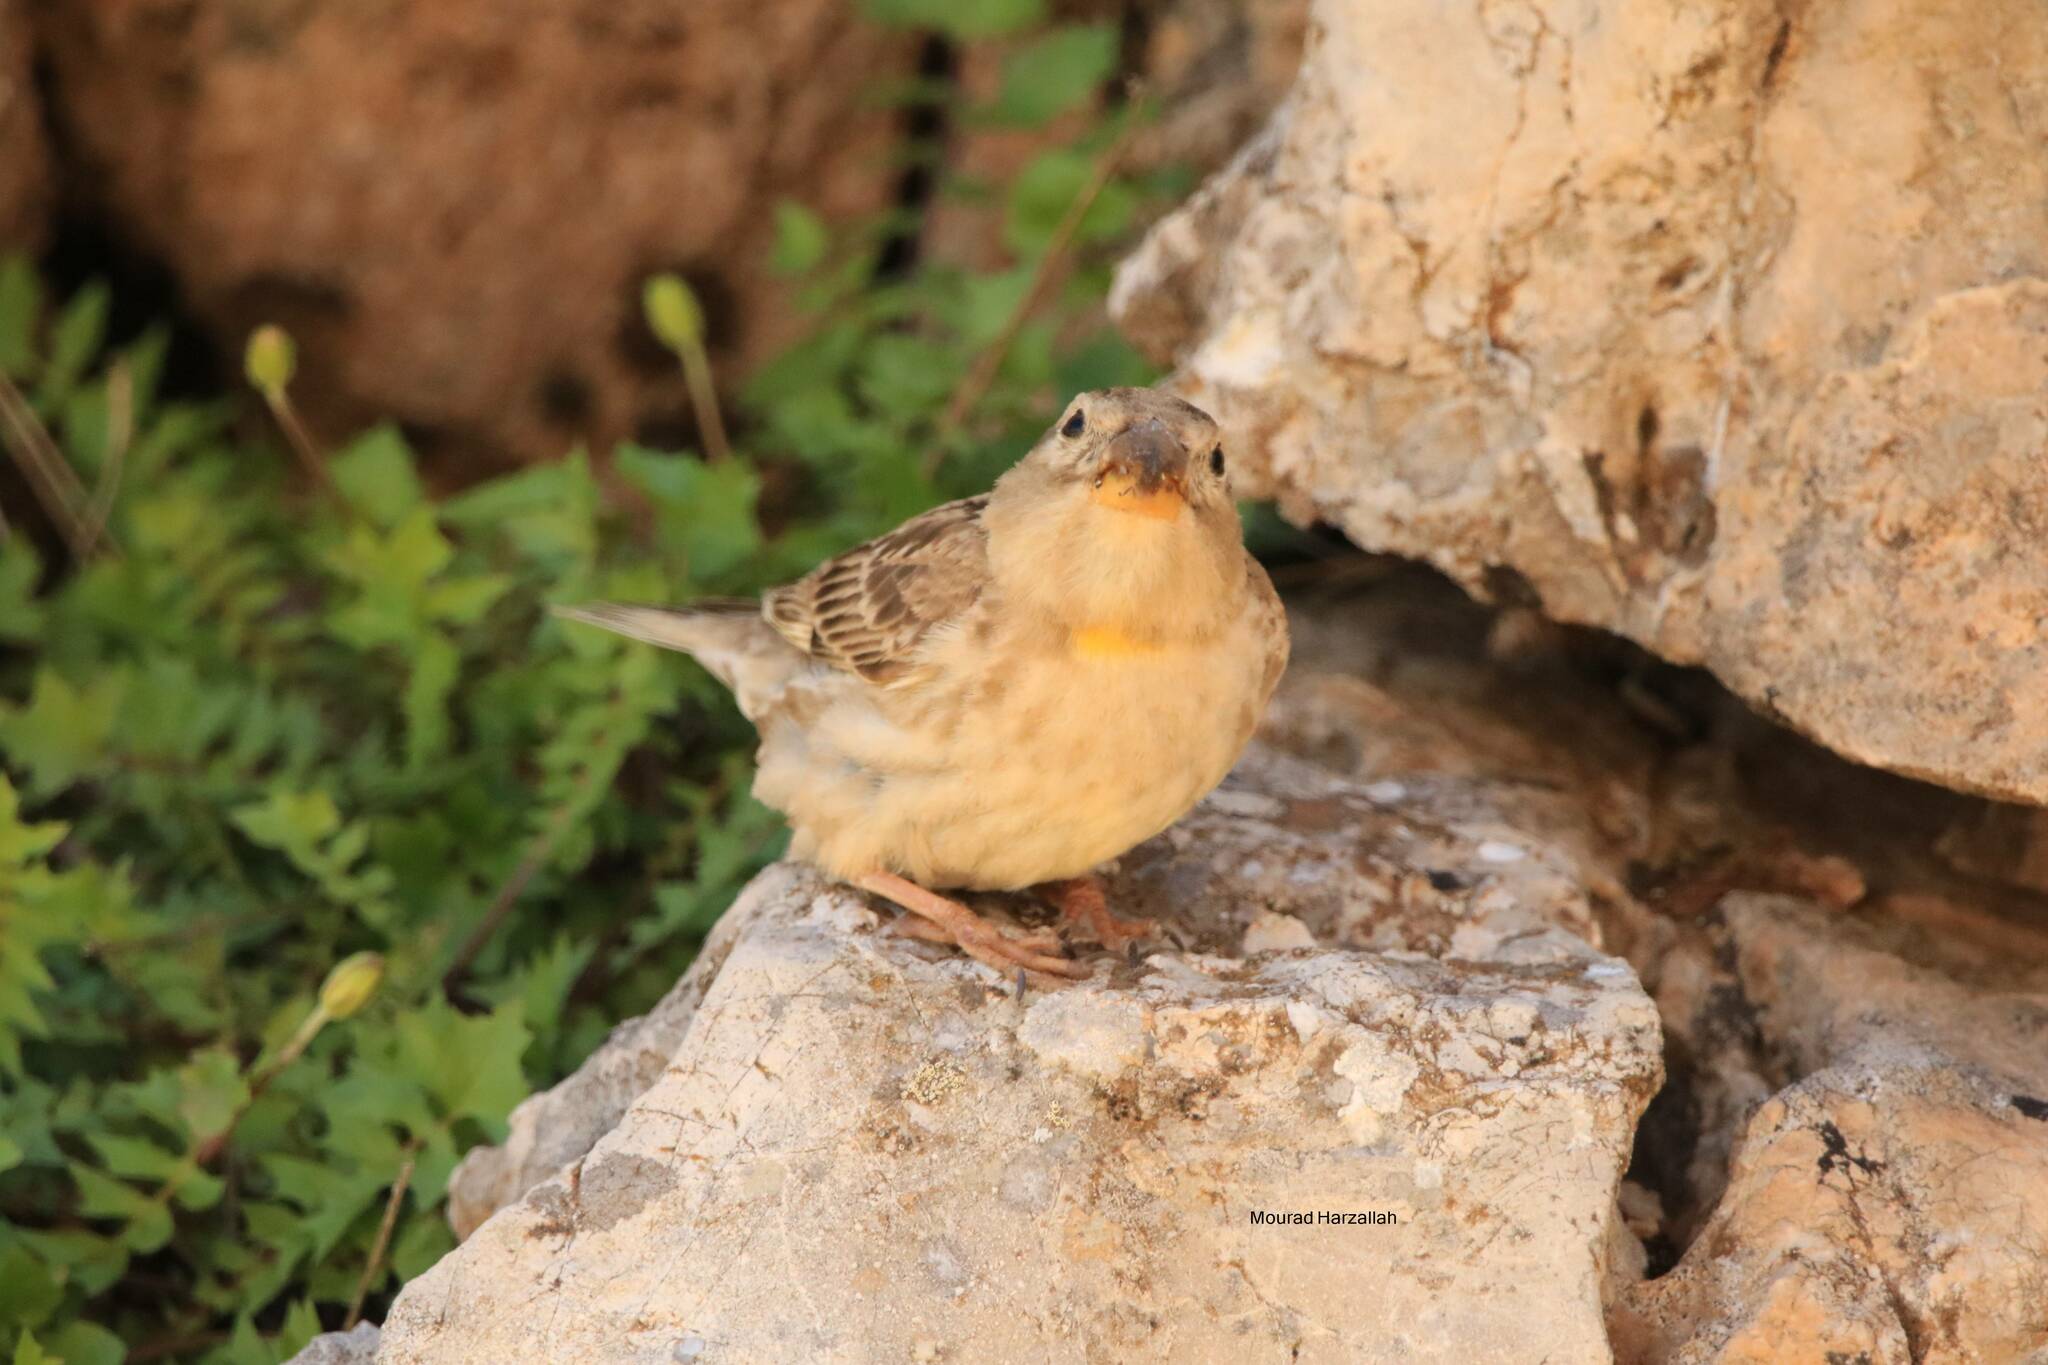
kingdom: Animalia
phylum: Chordata
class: Aves
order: Passeriformes
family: Passeridae
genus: Petronia
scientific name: Petronia petronia
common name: Rock sparrow
